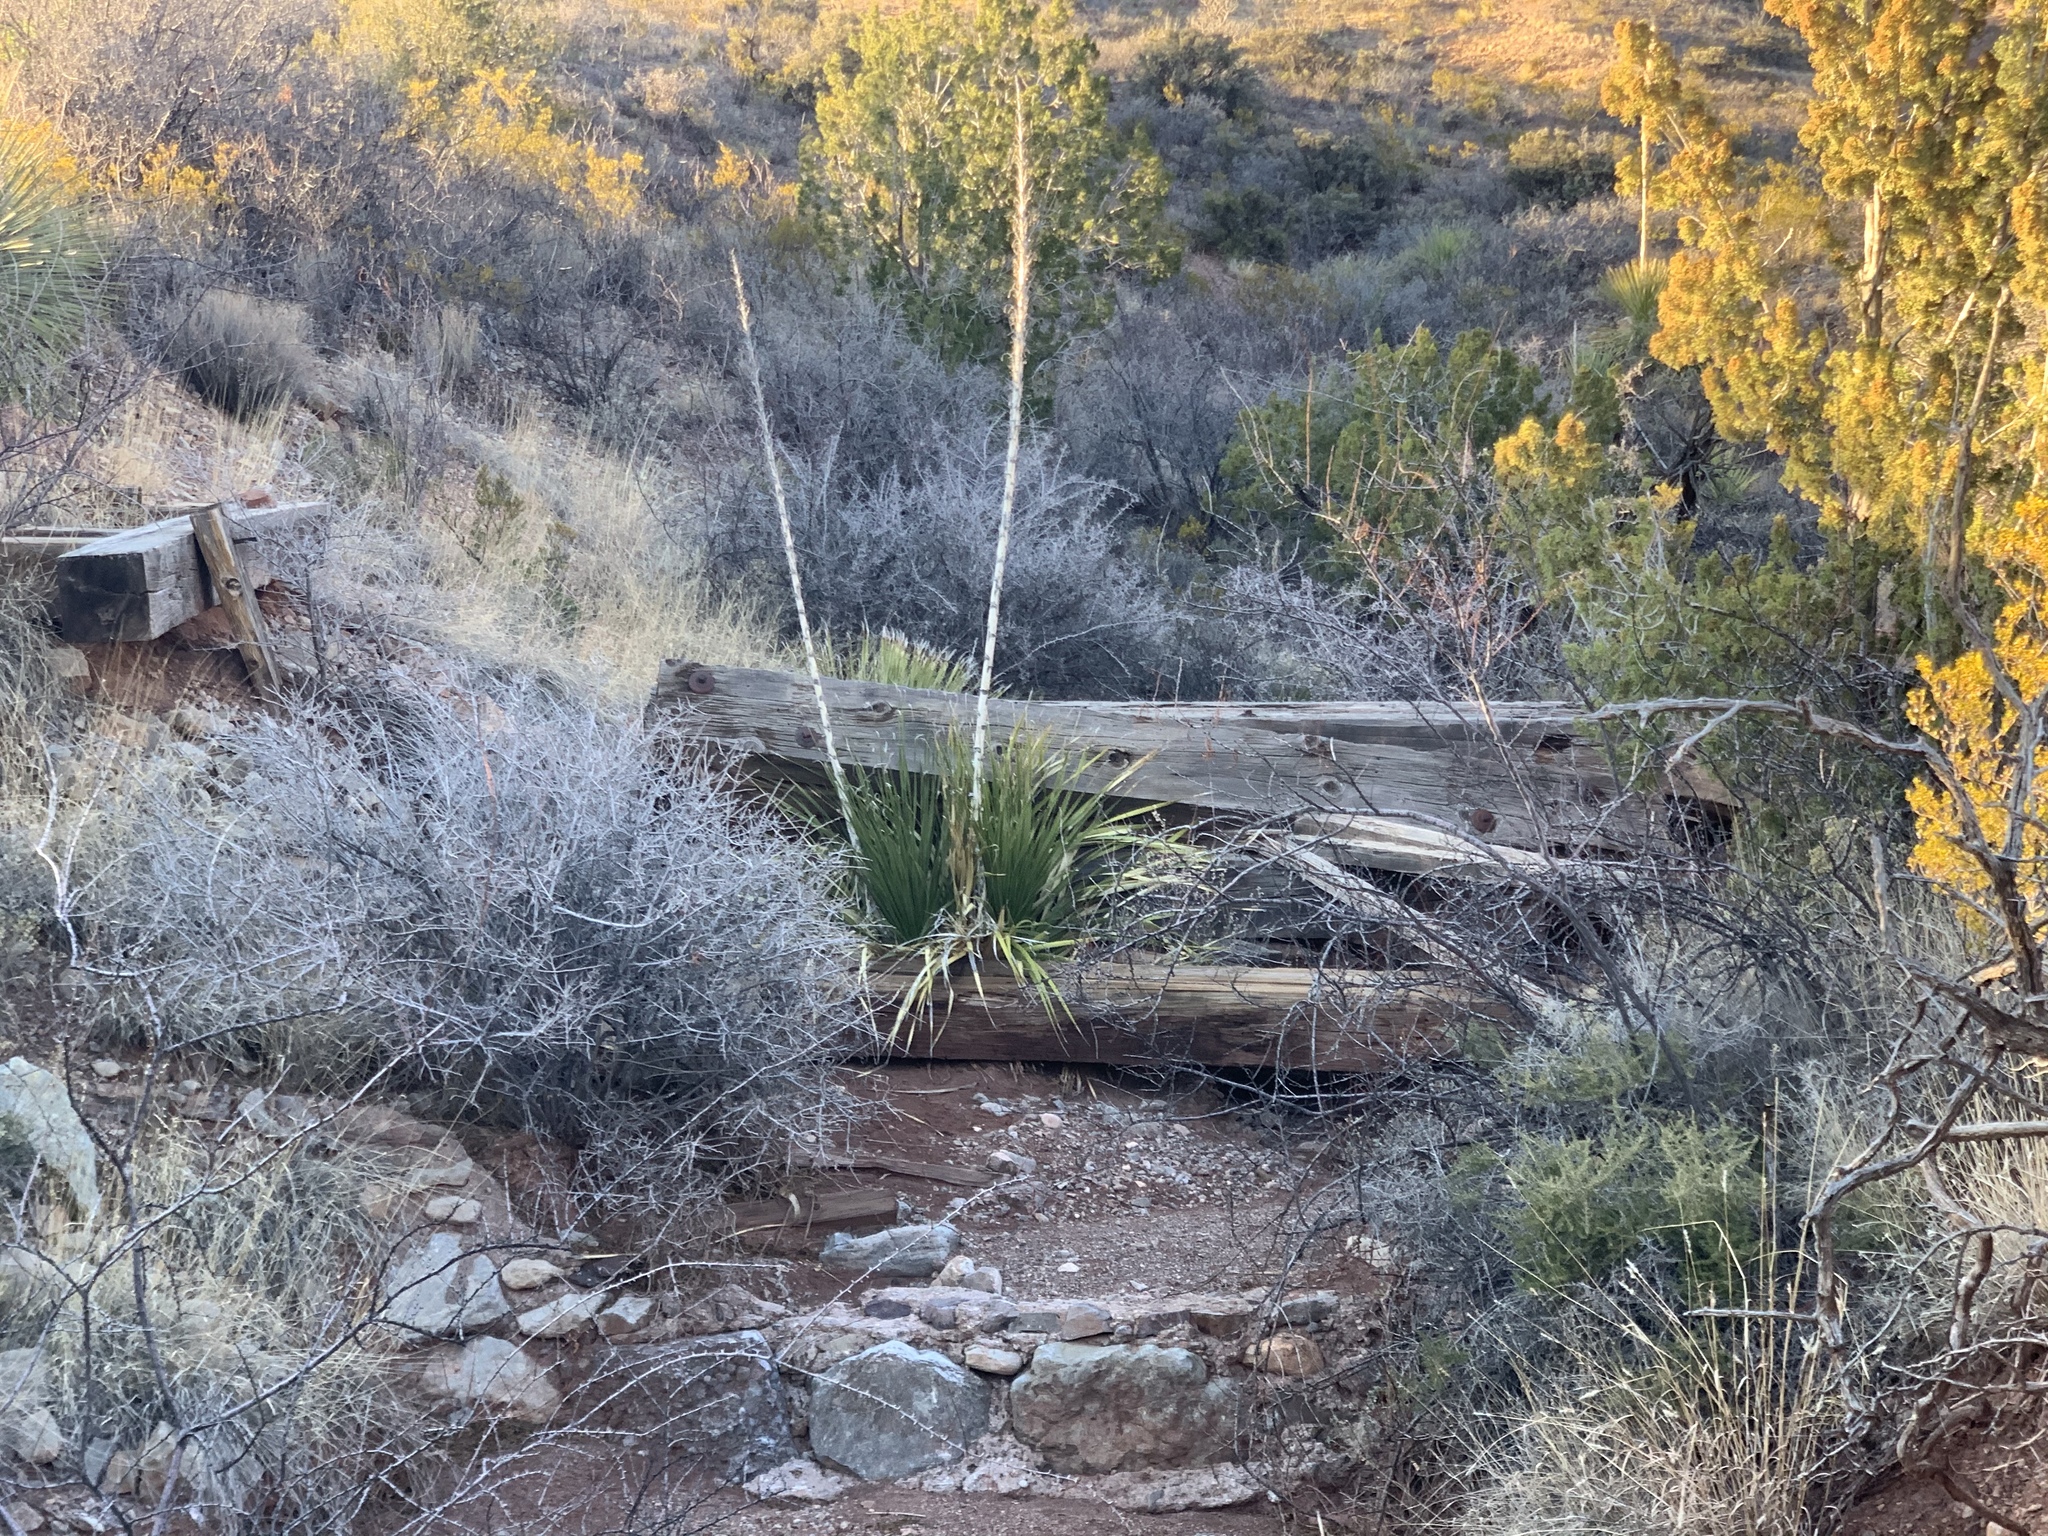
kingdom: Plantae
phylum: Tracheophyta
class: Liliopsida
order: Asparagales
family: Asparagaceae
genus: Dasylirion
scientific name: Dasylirion wheeleri
